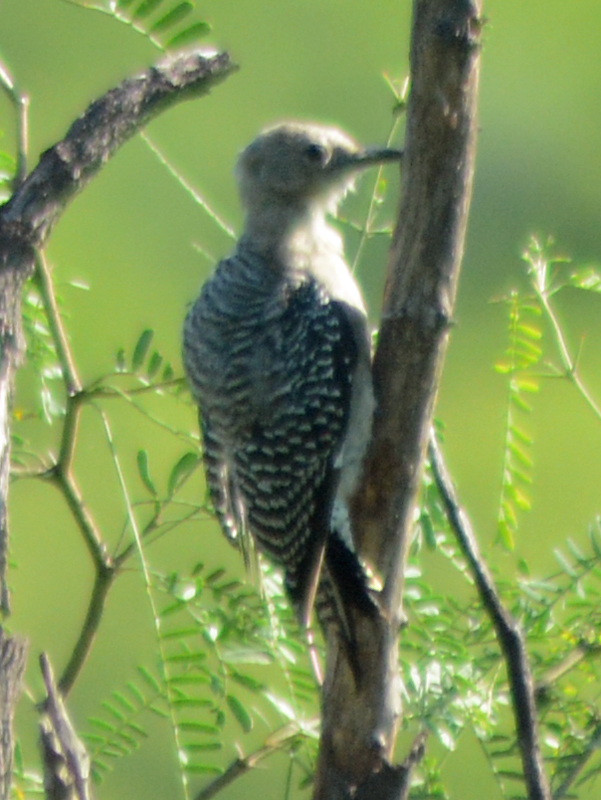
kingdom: Animalia
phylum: Chordata
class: Aves
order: Piciformes
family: Picidae
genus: Melanerpes
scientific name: Melanerpes uropygialis
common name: Gila woodpecker
